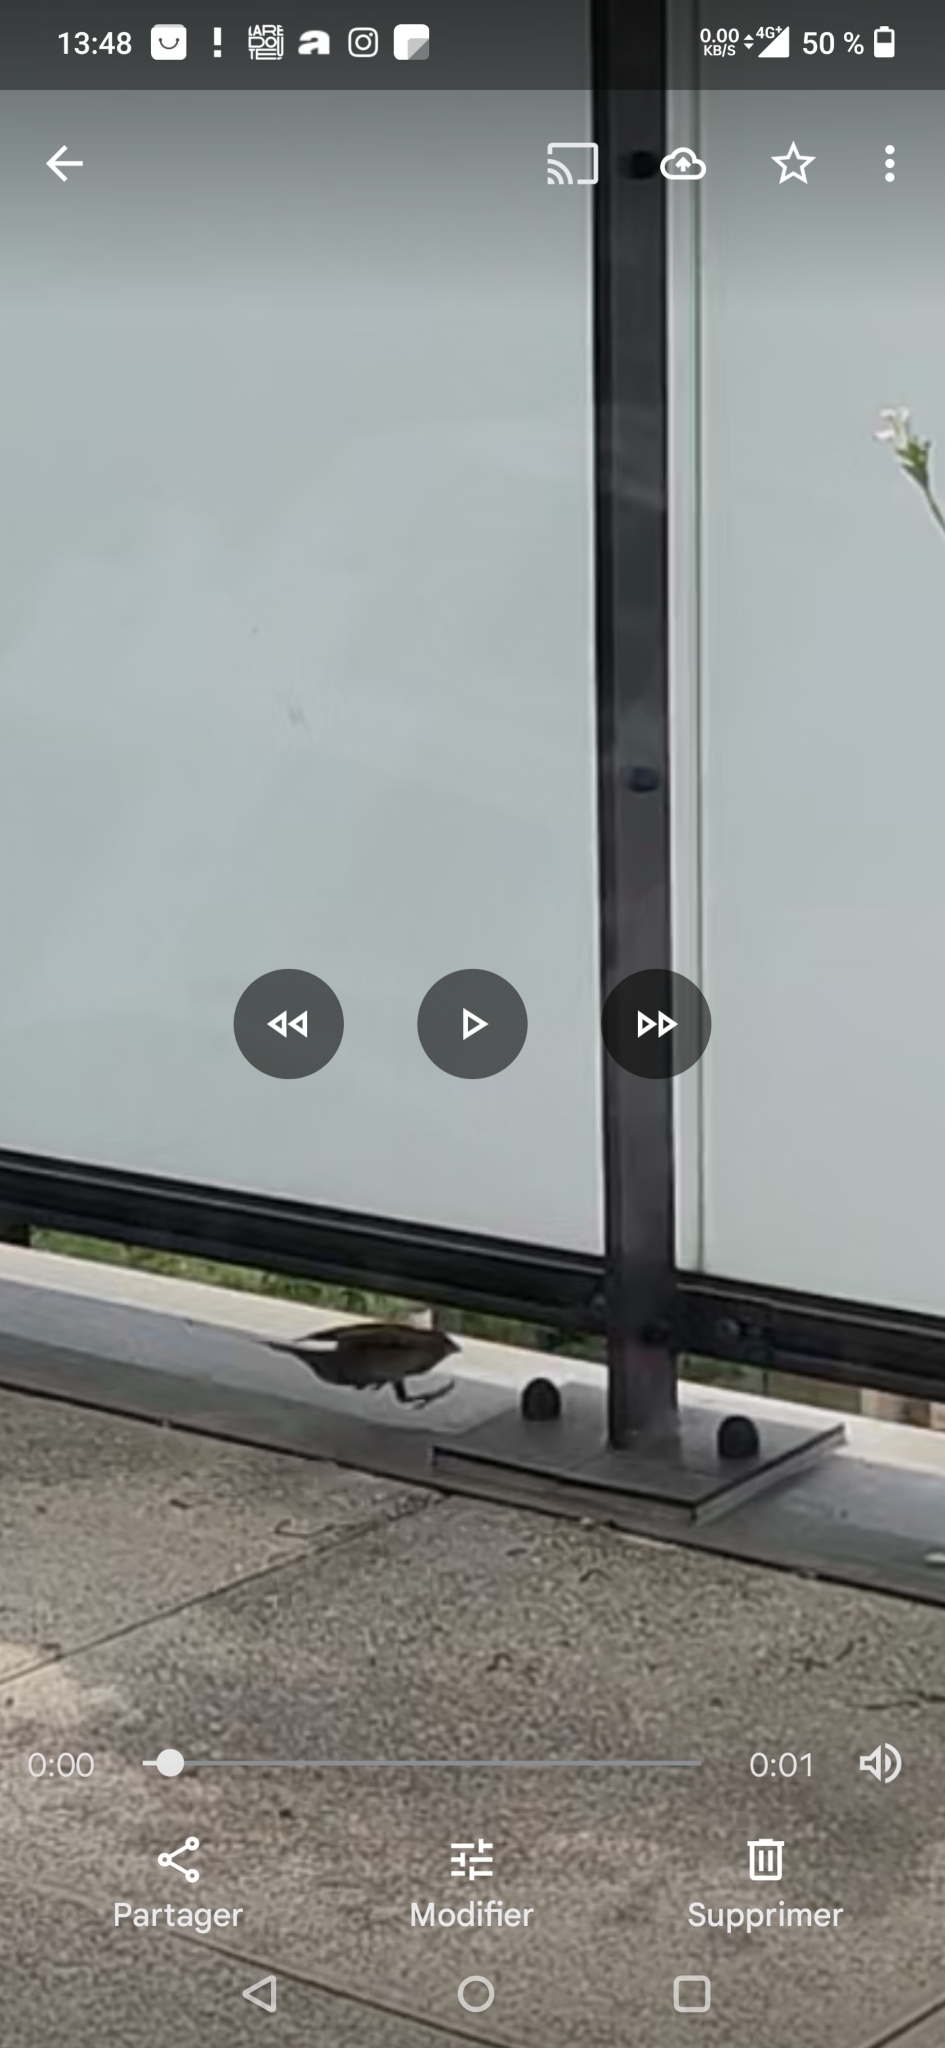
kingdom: Animalia
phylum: Chordata
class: Aves
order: Passeriformes
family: Passeridae
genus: Passer
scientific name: Passer domesticus
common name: House sparrow
